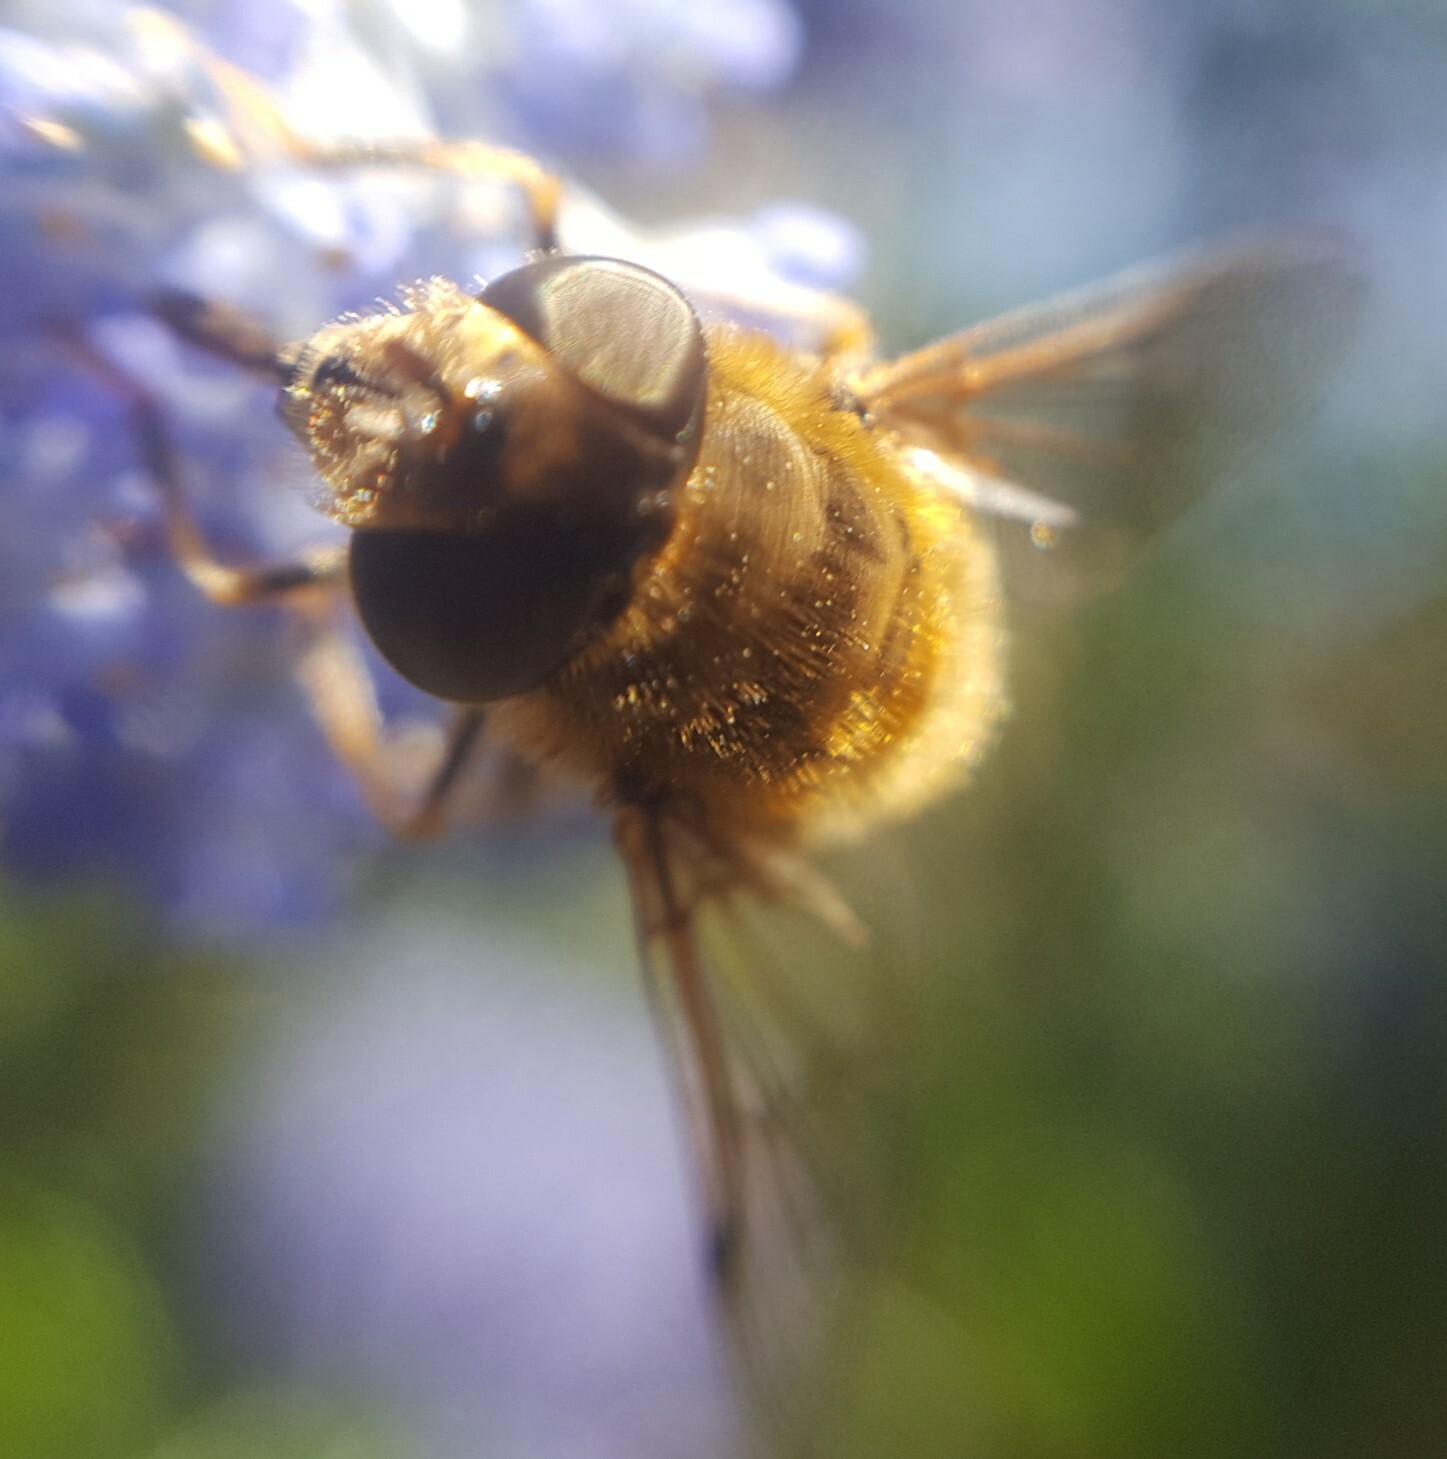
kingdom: Animalia
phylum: Arthropoda
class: Insecta
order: Diptera
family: Syrphidae
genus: Eristalis
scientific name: Eristalis pertinax
